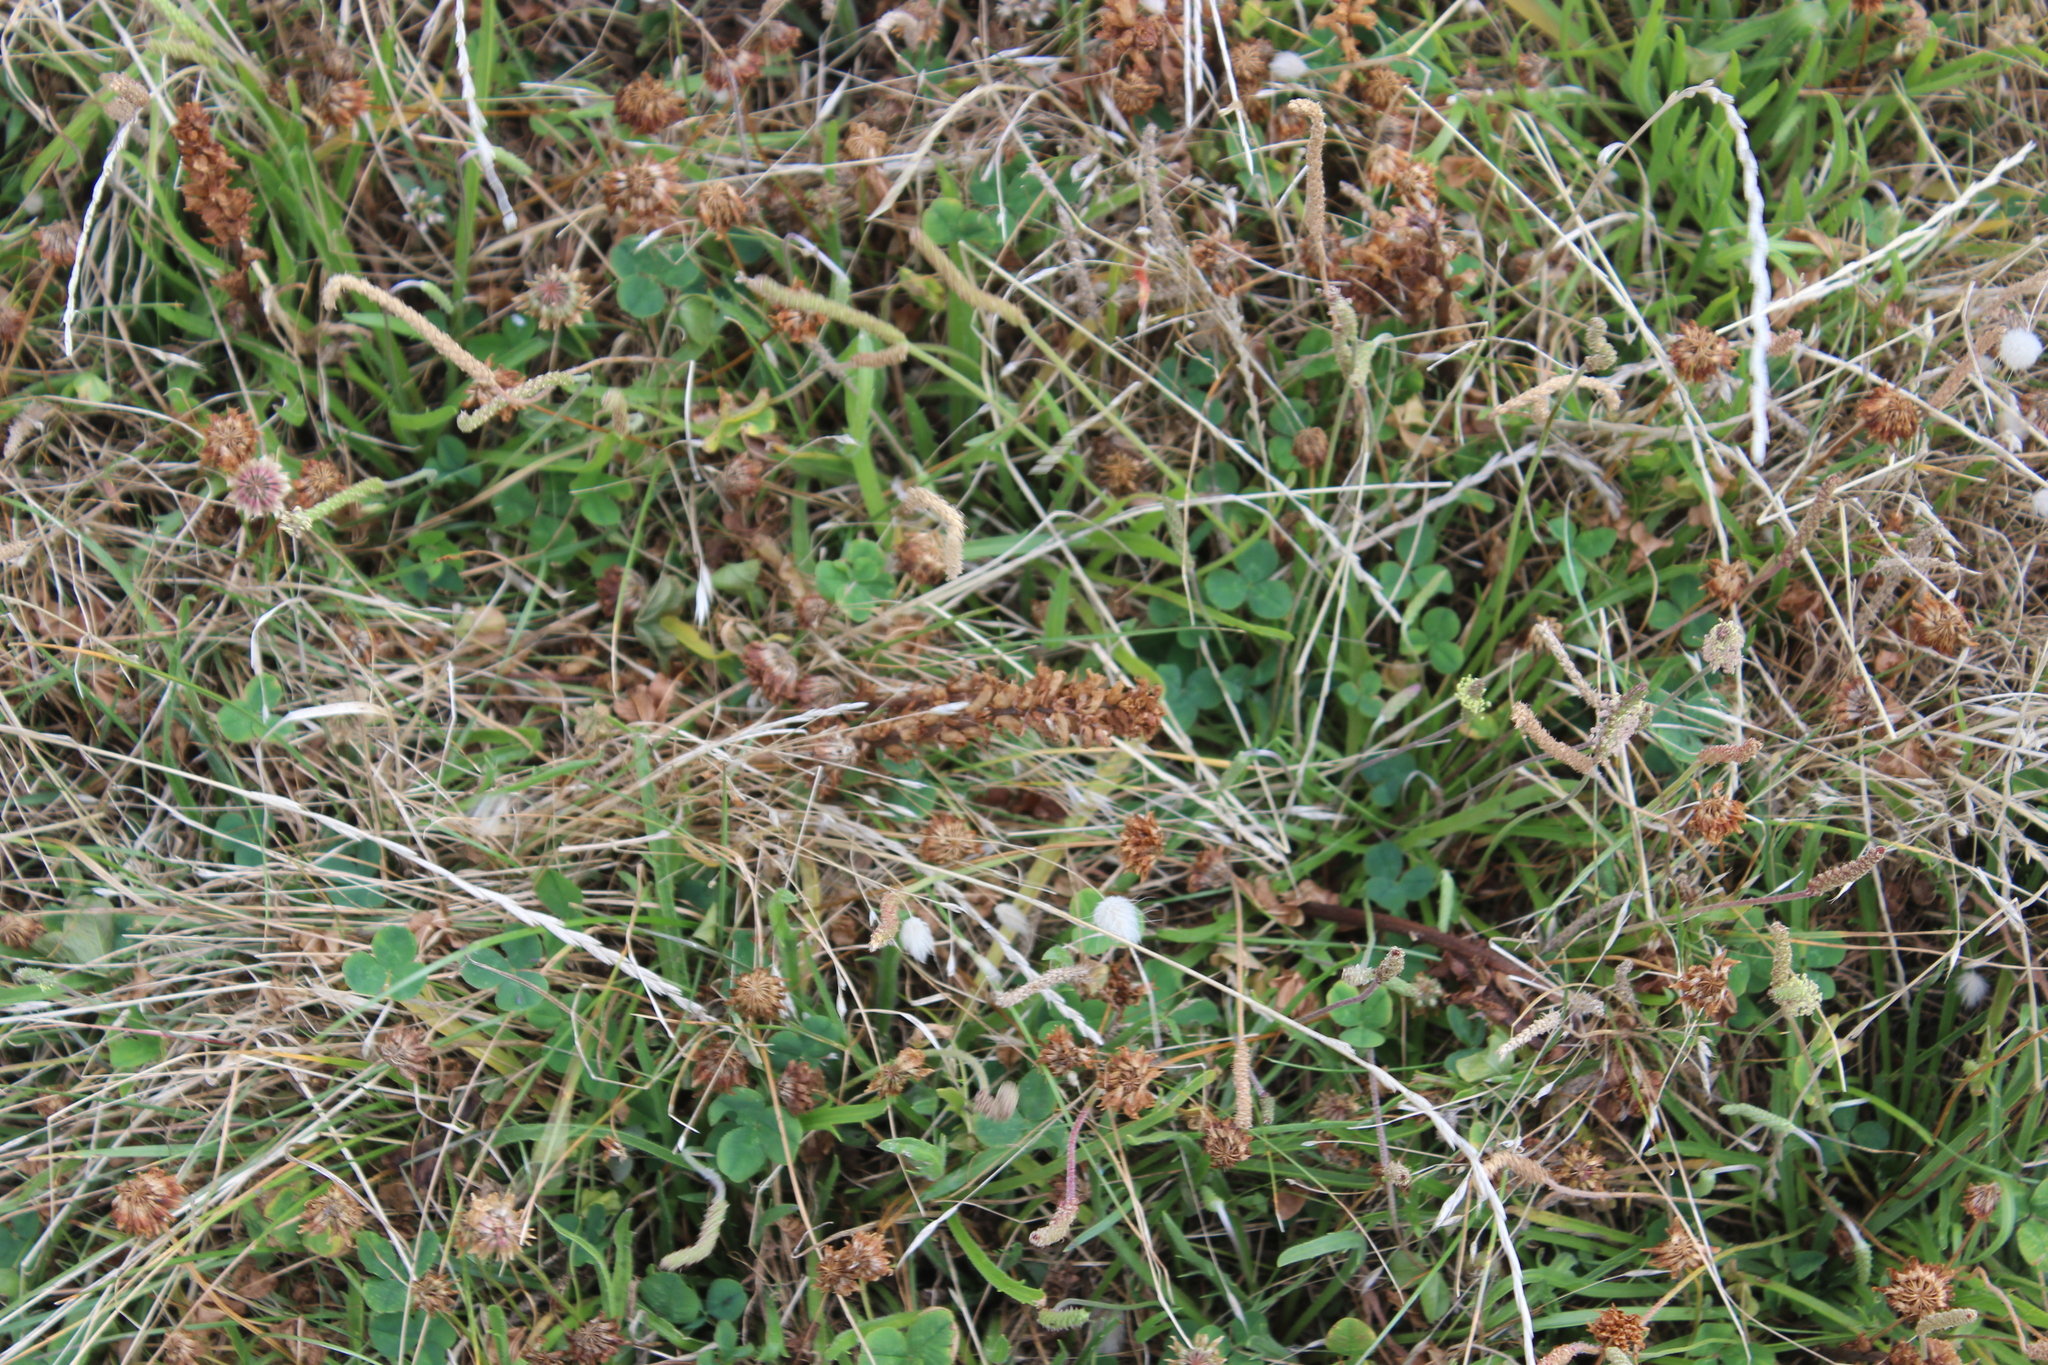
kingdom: Plantae
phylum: Tracheophyta
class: Magnoliopsida
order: Lamiales
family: Orobanchaceae
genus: Orobanche
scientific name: Orobanche minor
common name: Common broomrape
